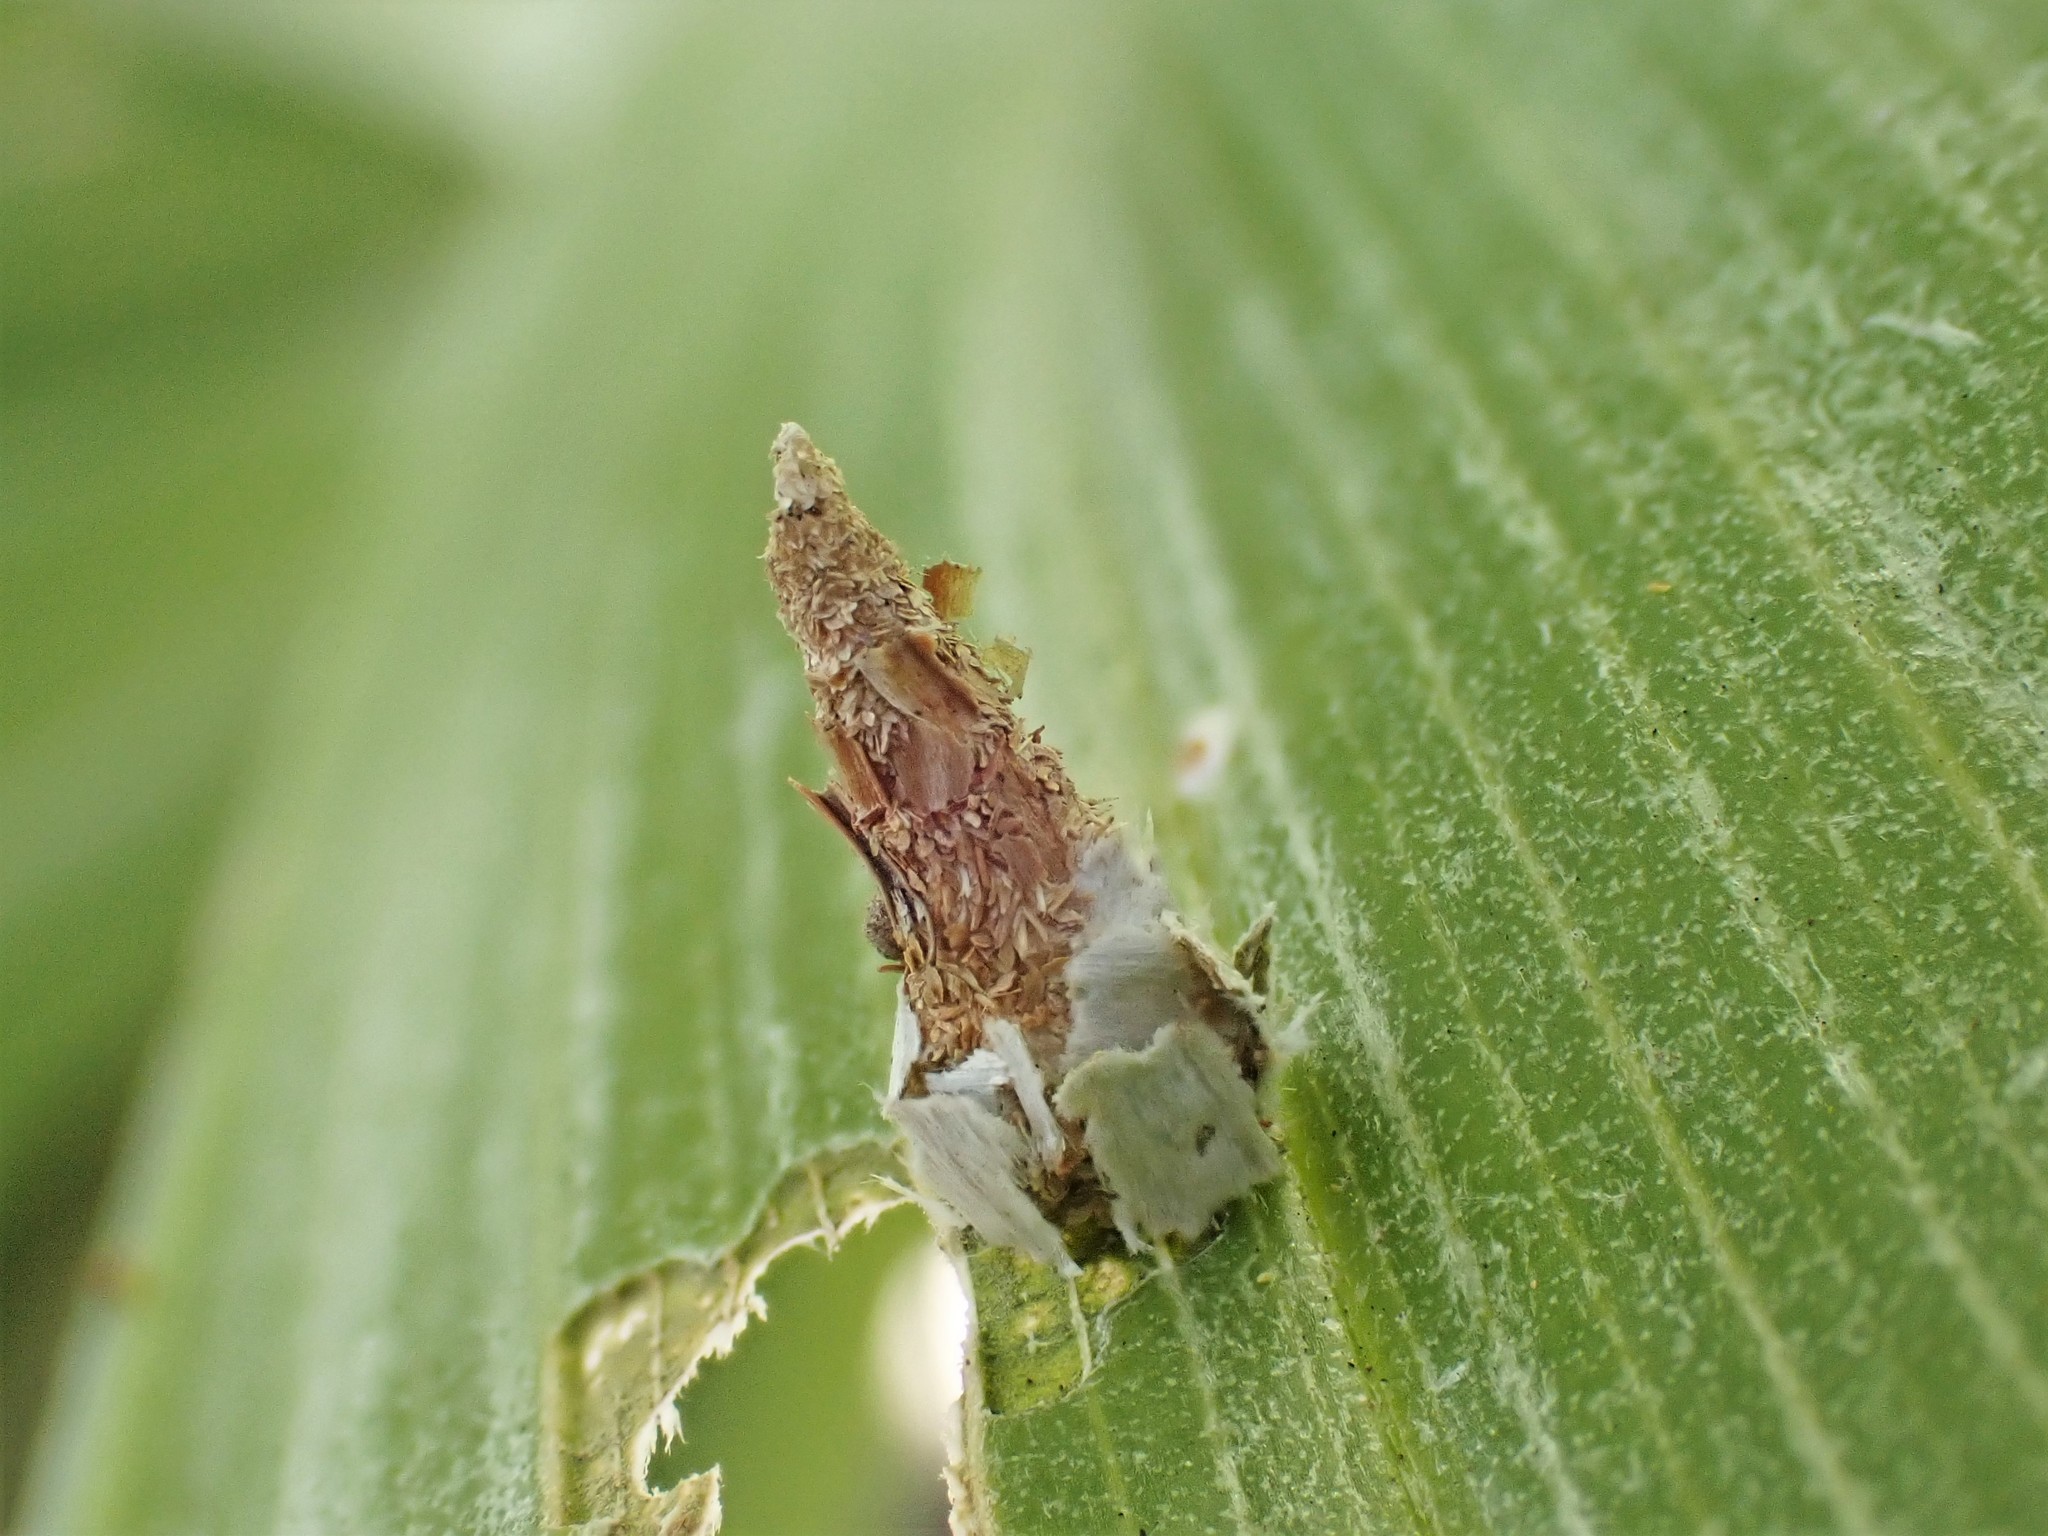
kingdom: Animalia
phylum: Arthropoda
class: Insecta
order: Lepidoptera
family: Psychidae
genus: Liothula
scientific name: Liothula omnivora
